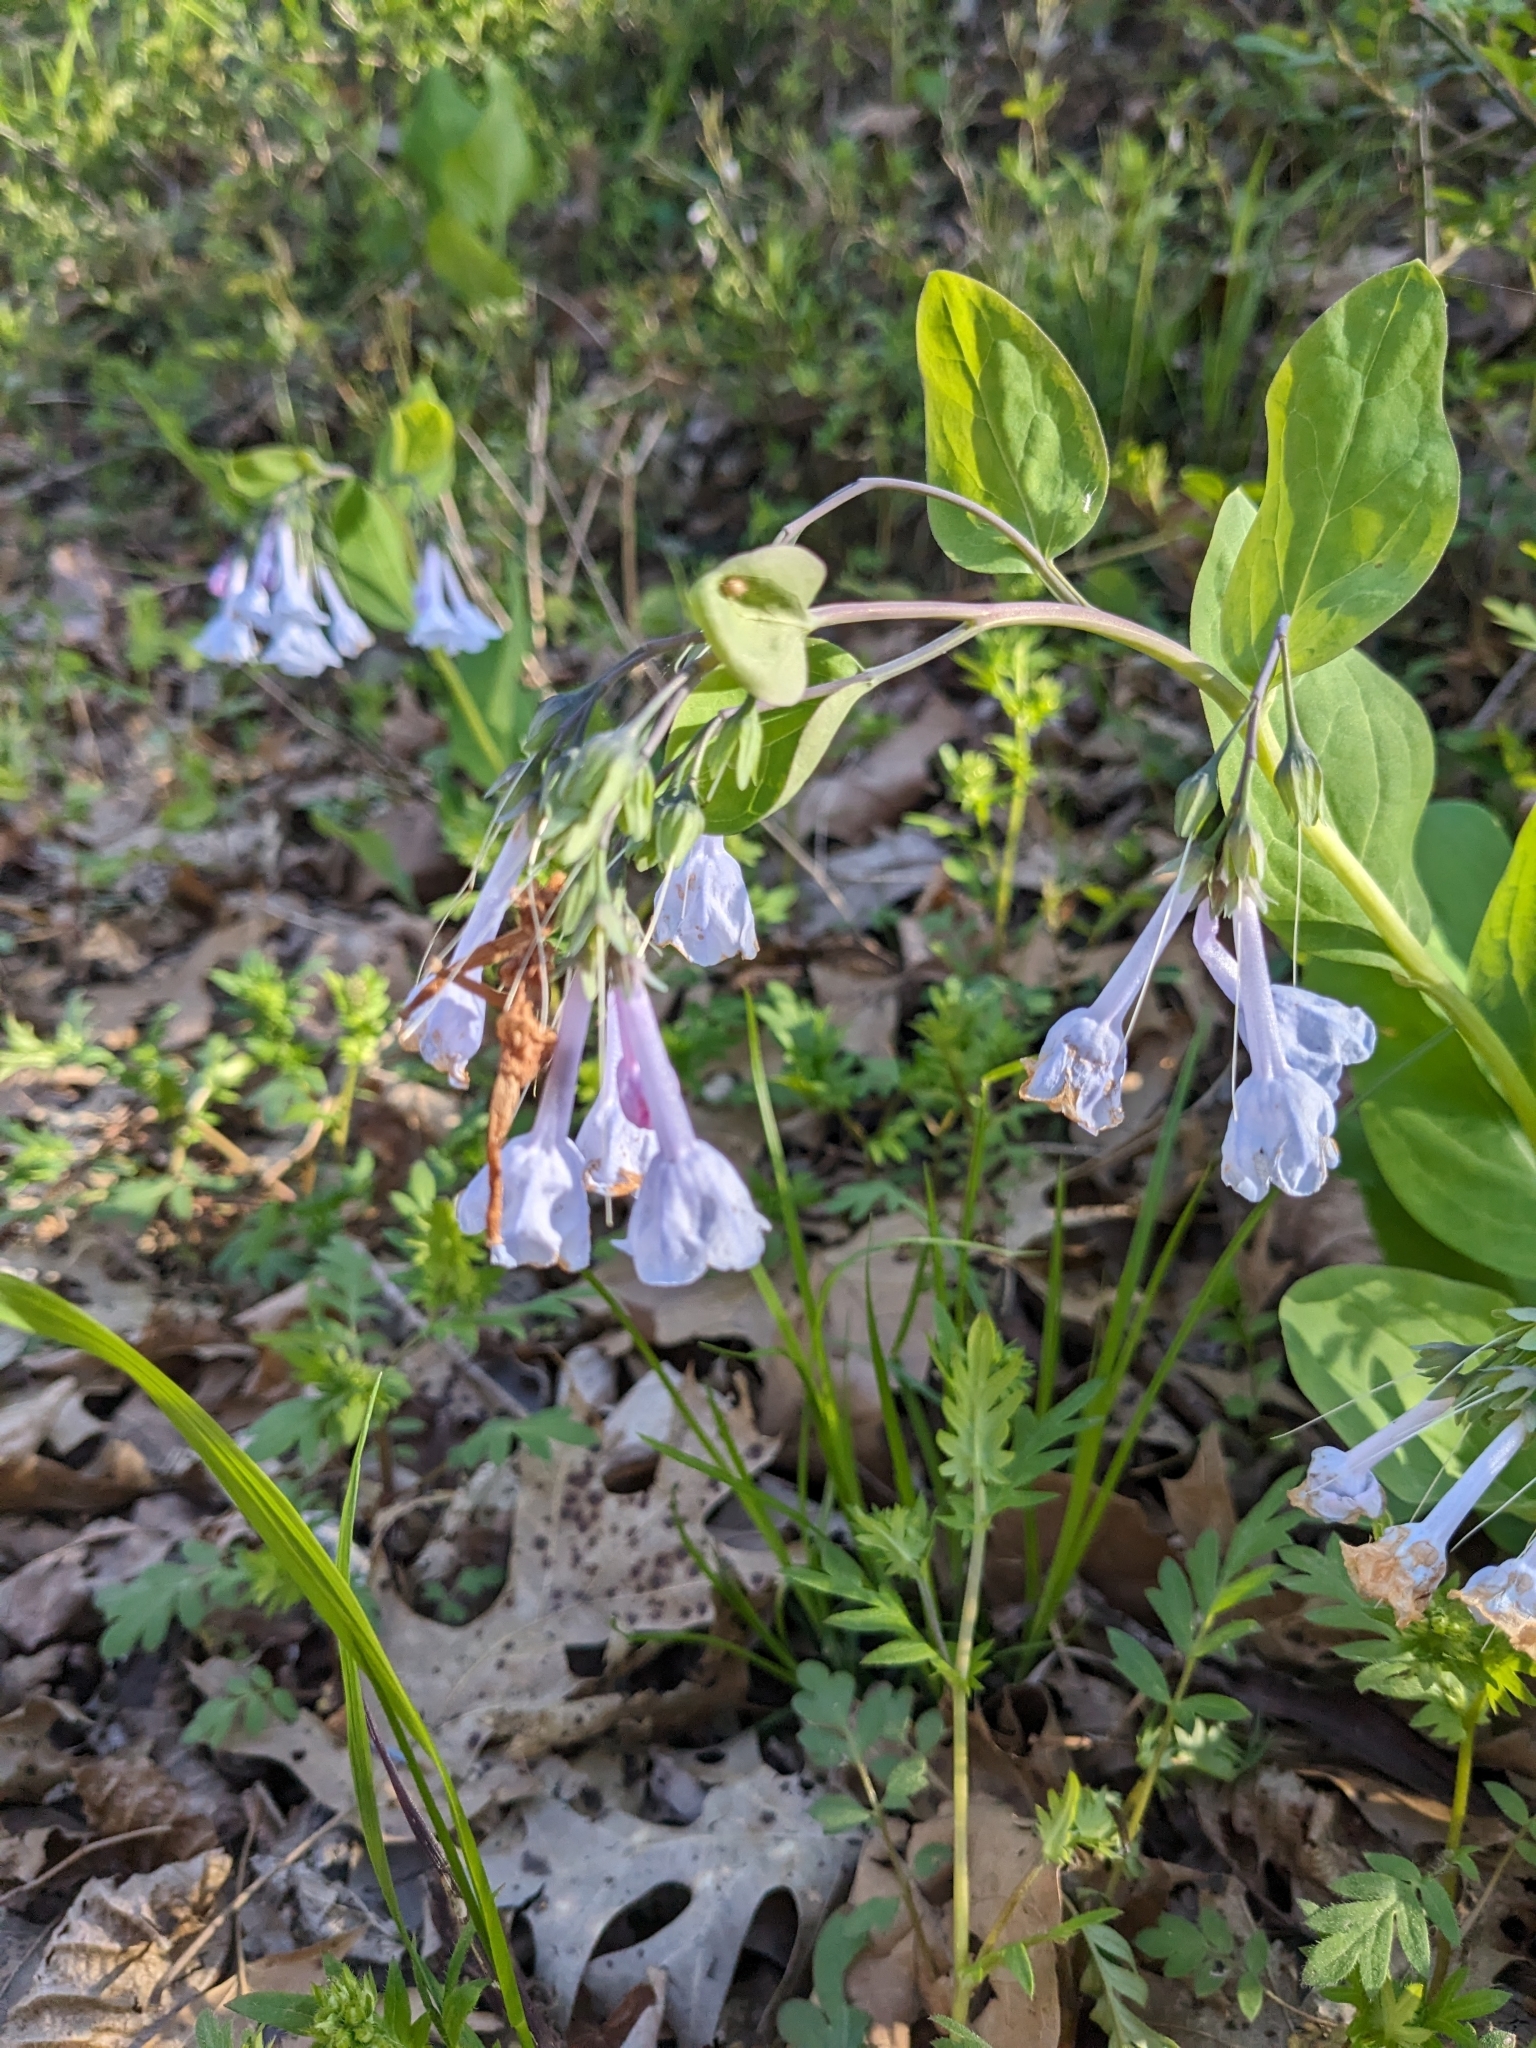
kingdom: Plantae
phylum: Tracheophyta
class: Magnoliopsida
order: Boraginales
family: Boraginaceae
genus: Mertensia
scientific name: Mertensia virginica
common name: Virginia bluebells
